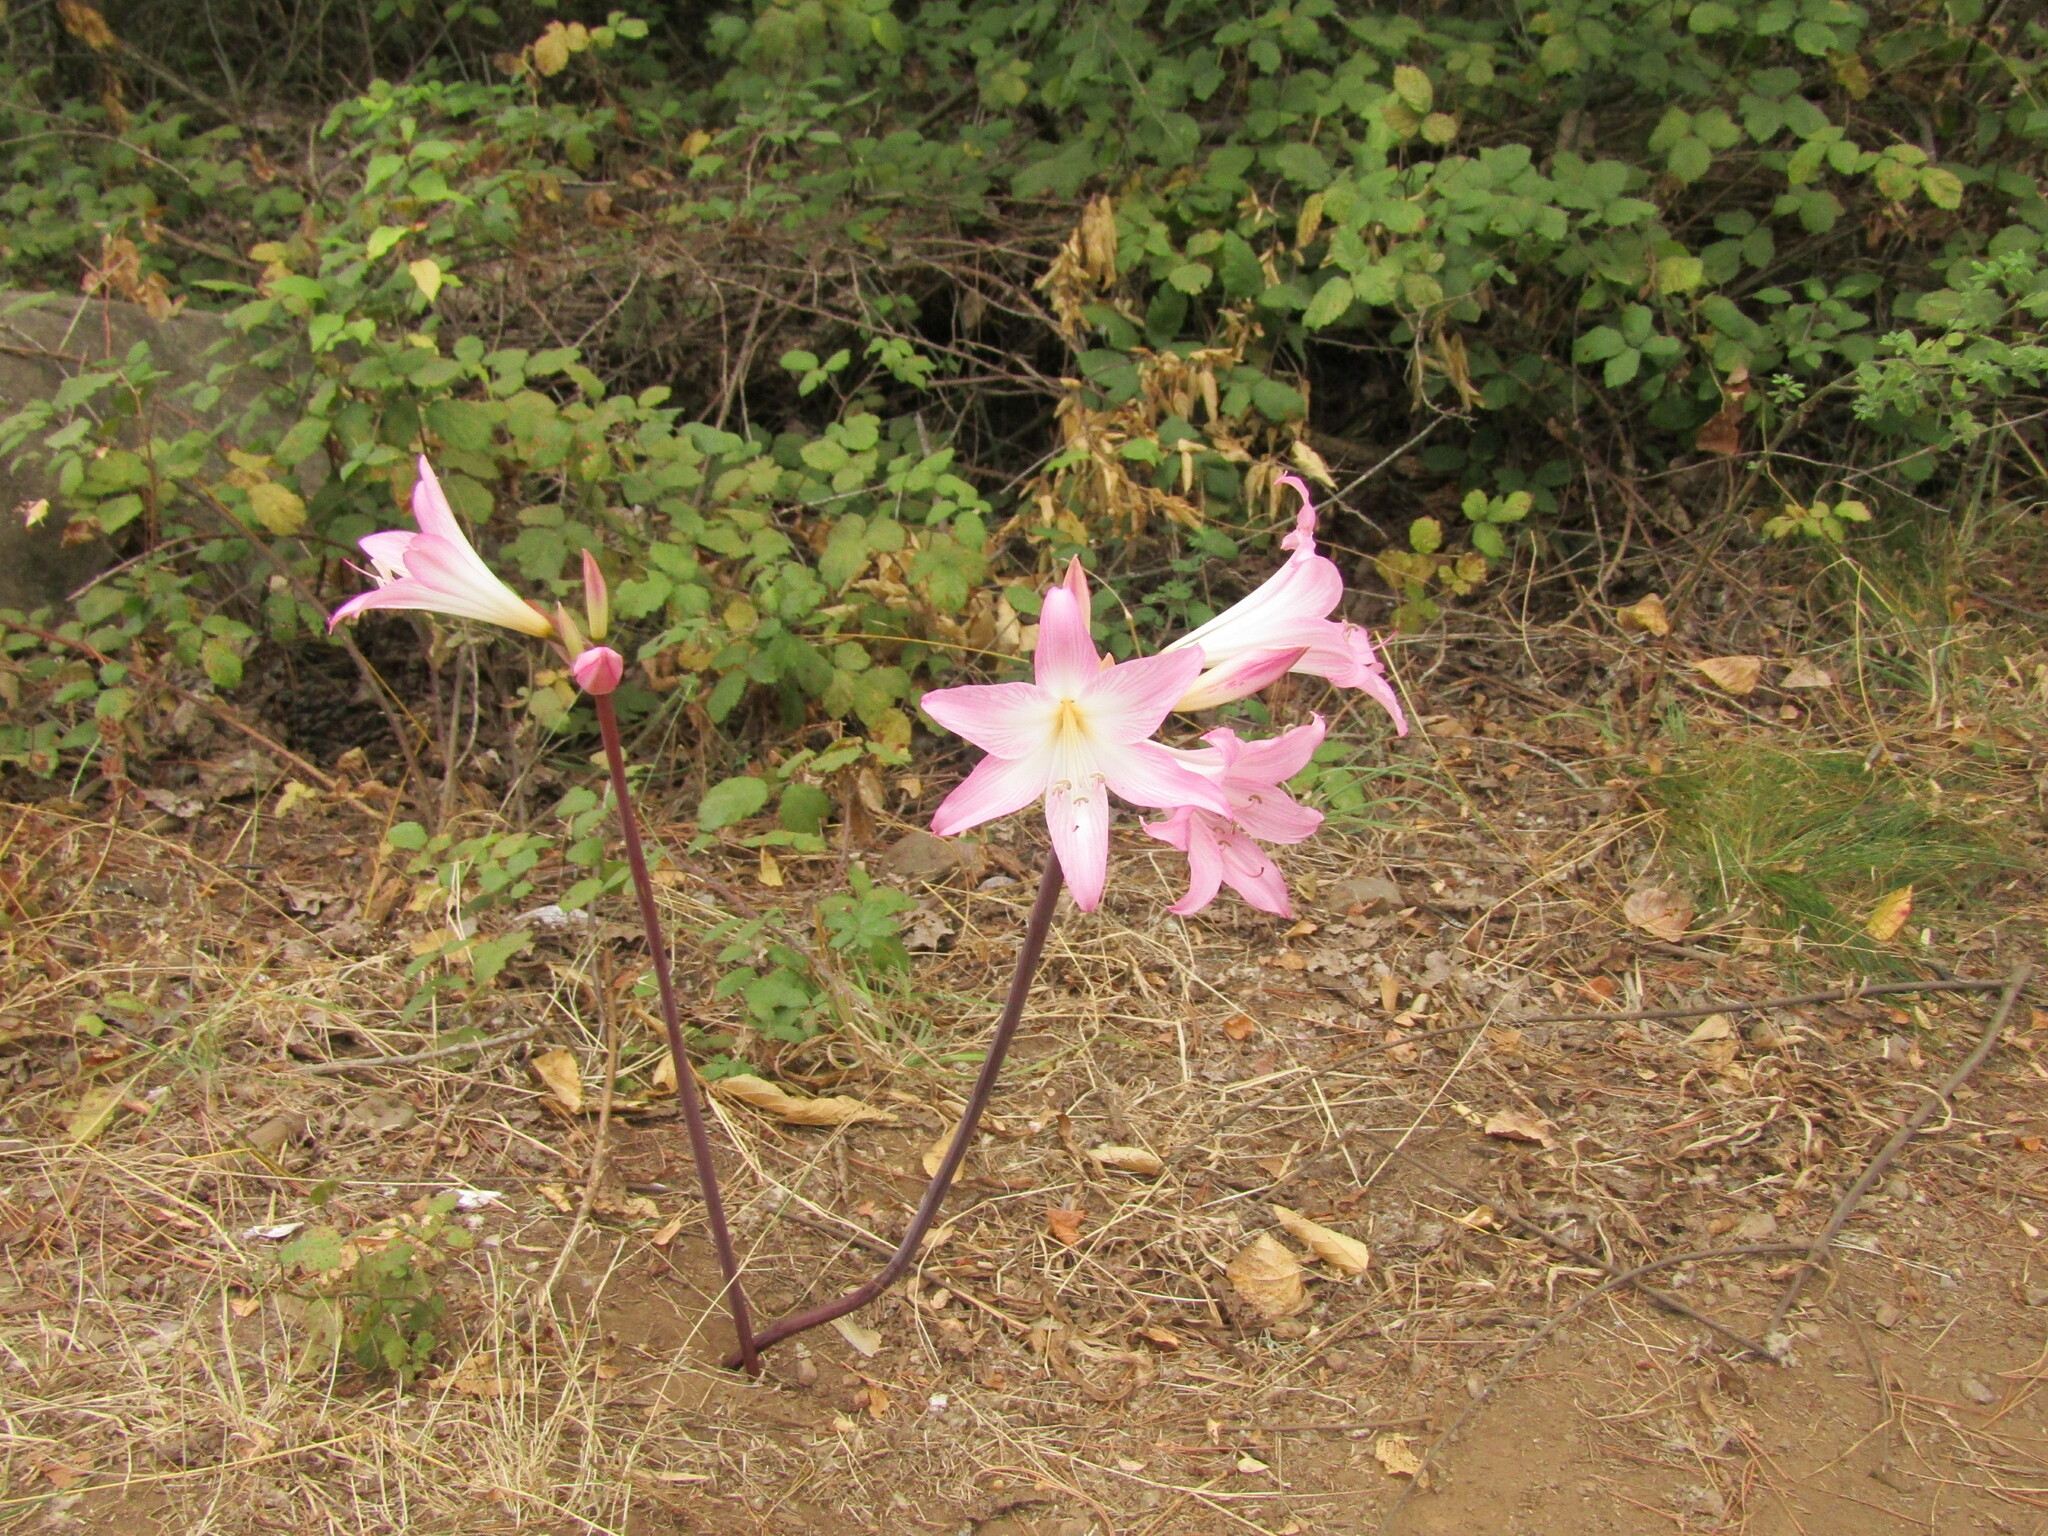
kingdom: Plantae
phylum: Tracheophyta
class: Liliopsida
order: Asparagales
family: Amaryllidaceae
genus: Amaryllis
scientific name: Amaryllis belladonna
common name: Jersey lily
